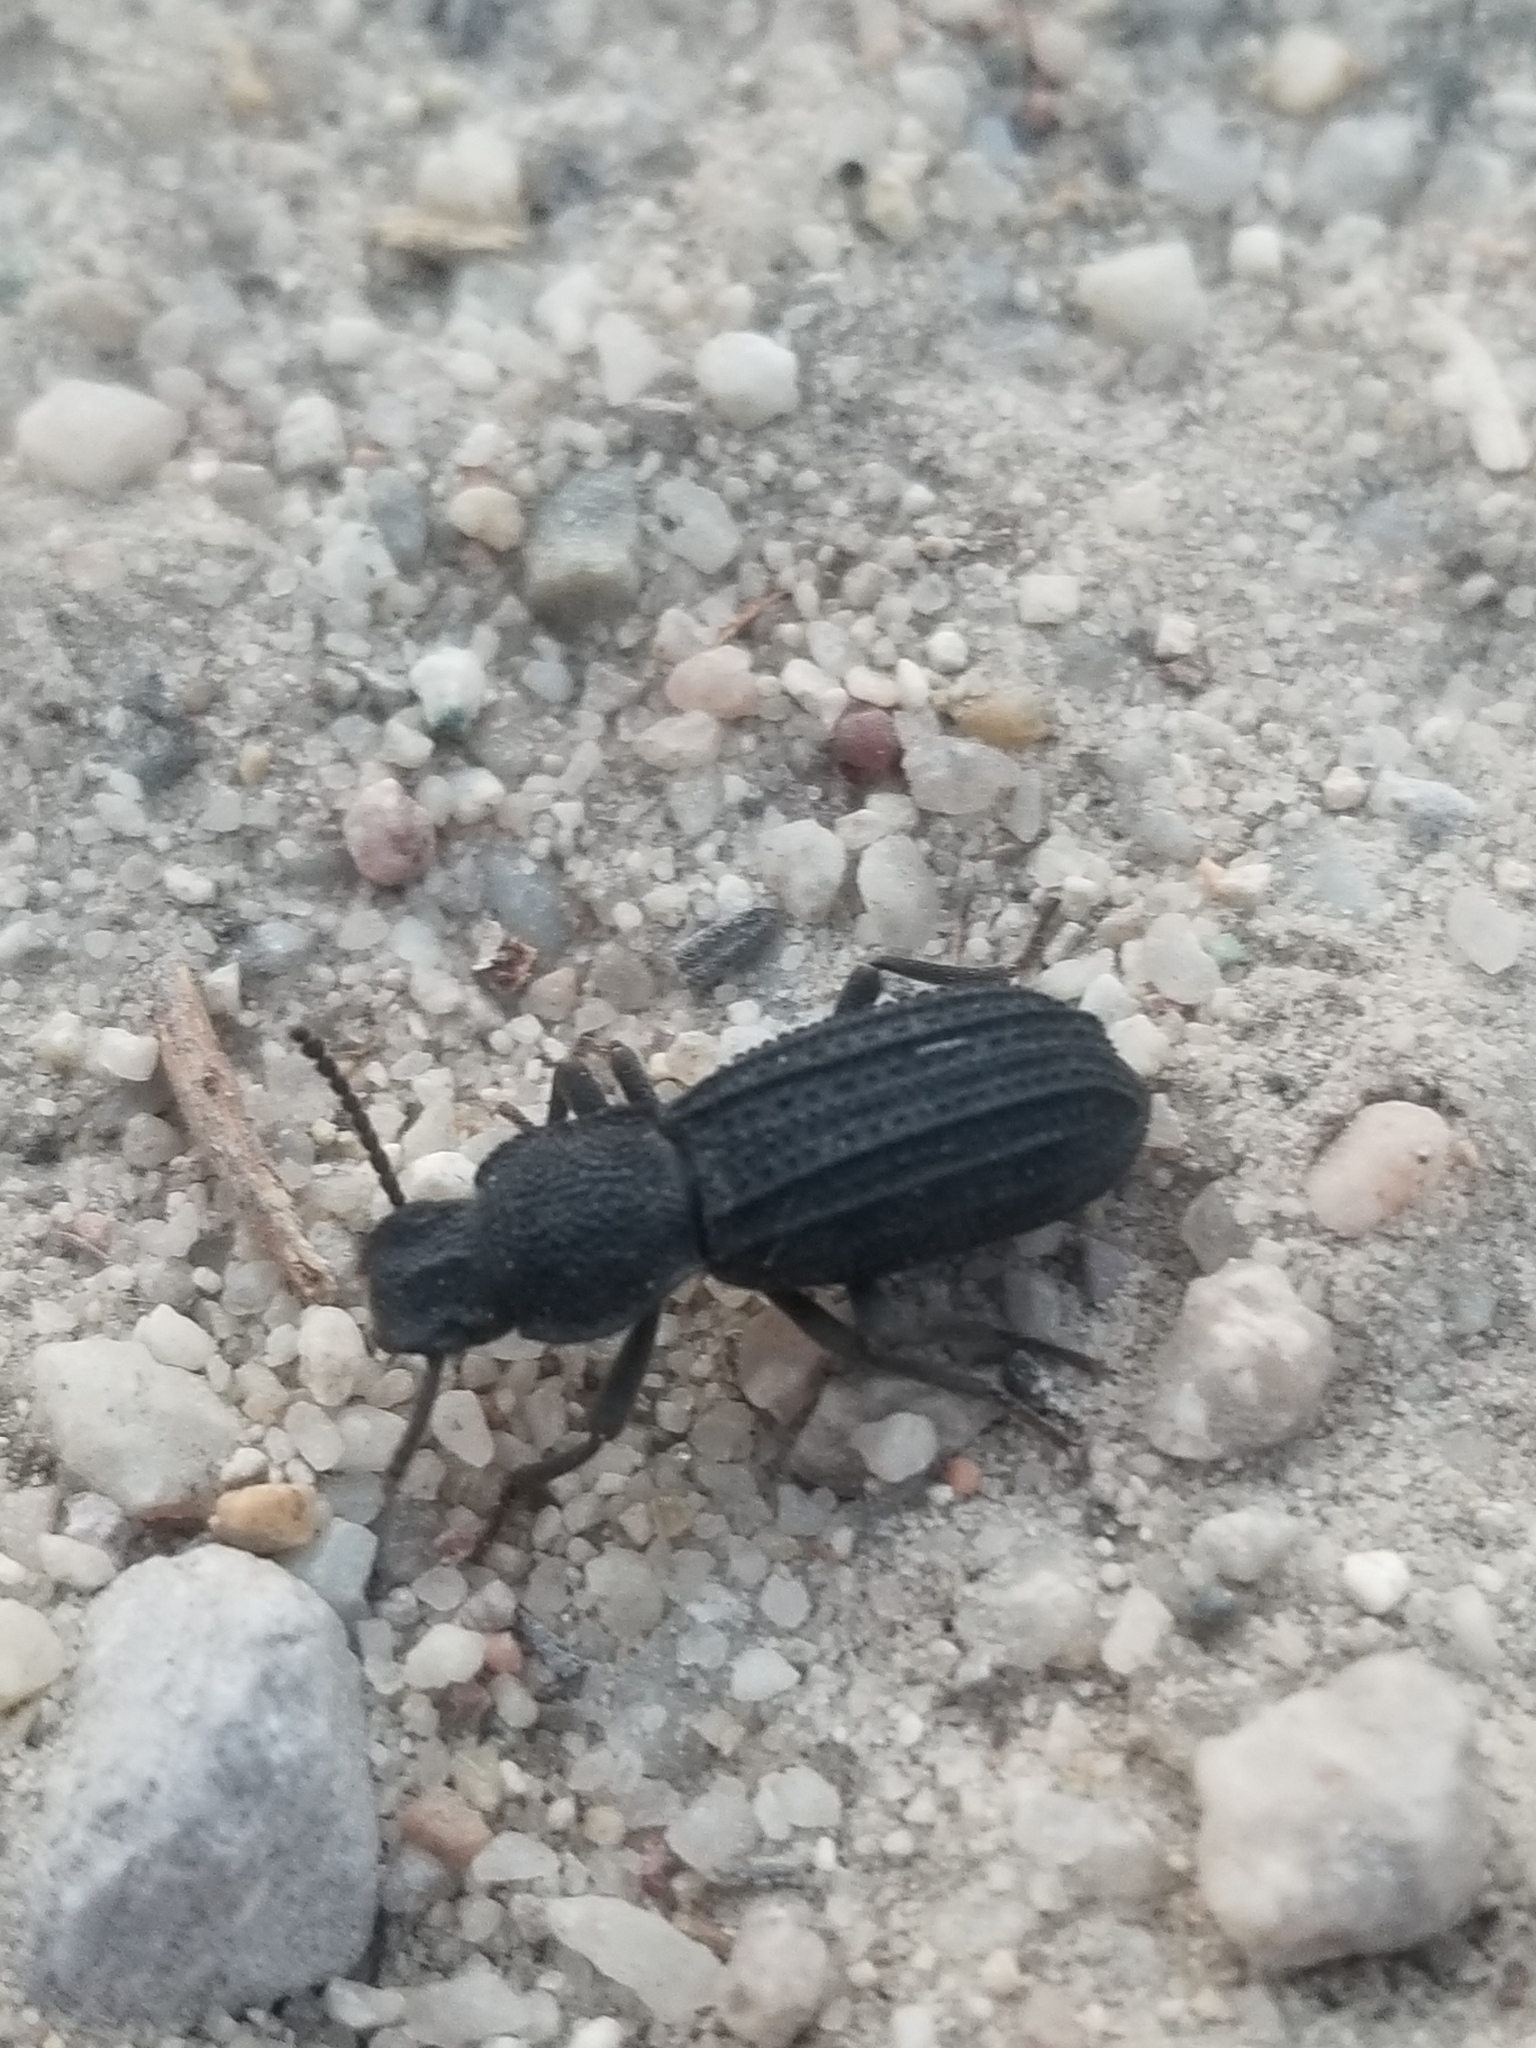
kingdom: Animalia
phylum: Arthropoda
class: Insecta
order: Coleoptera
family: Tenebrionidae
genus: Nyctoporis
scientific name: Nyctoporis carinata
